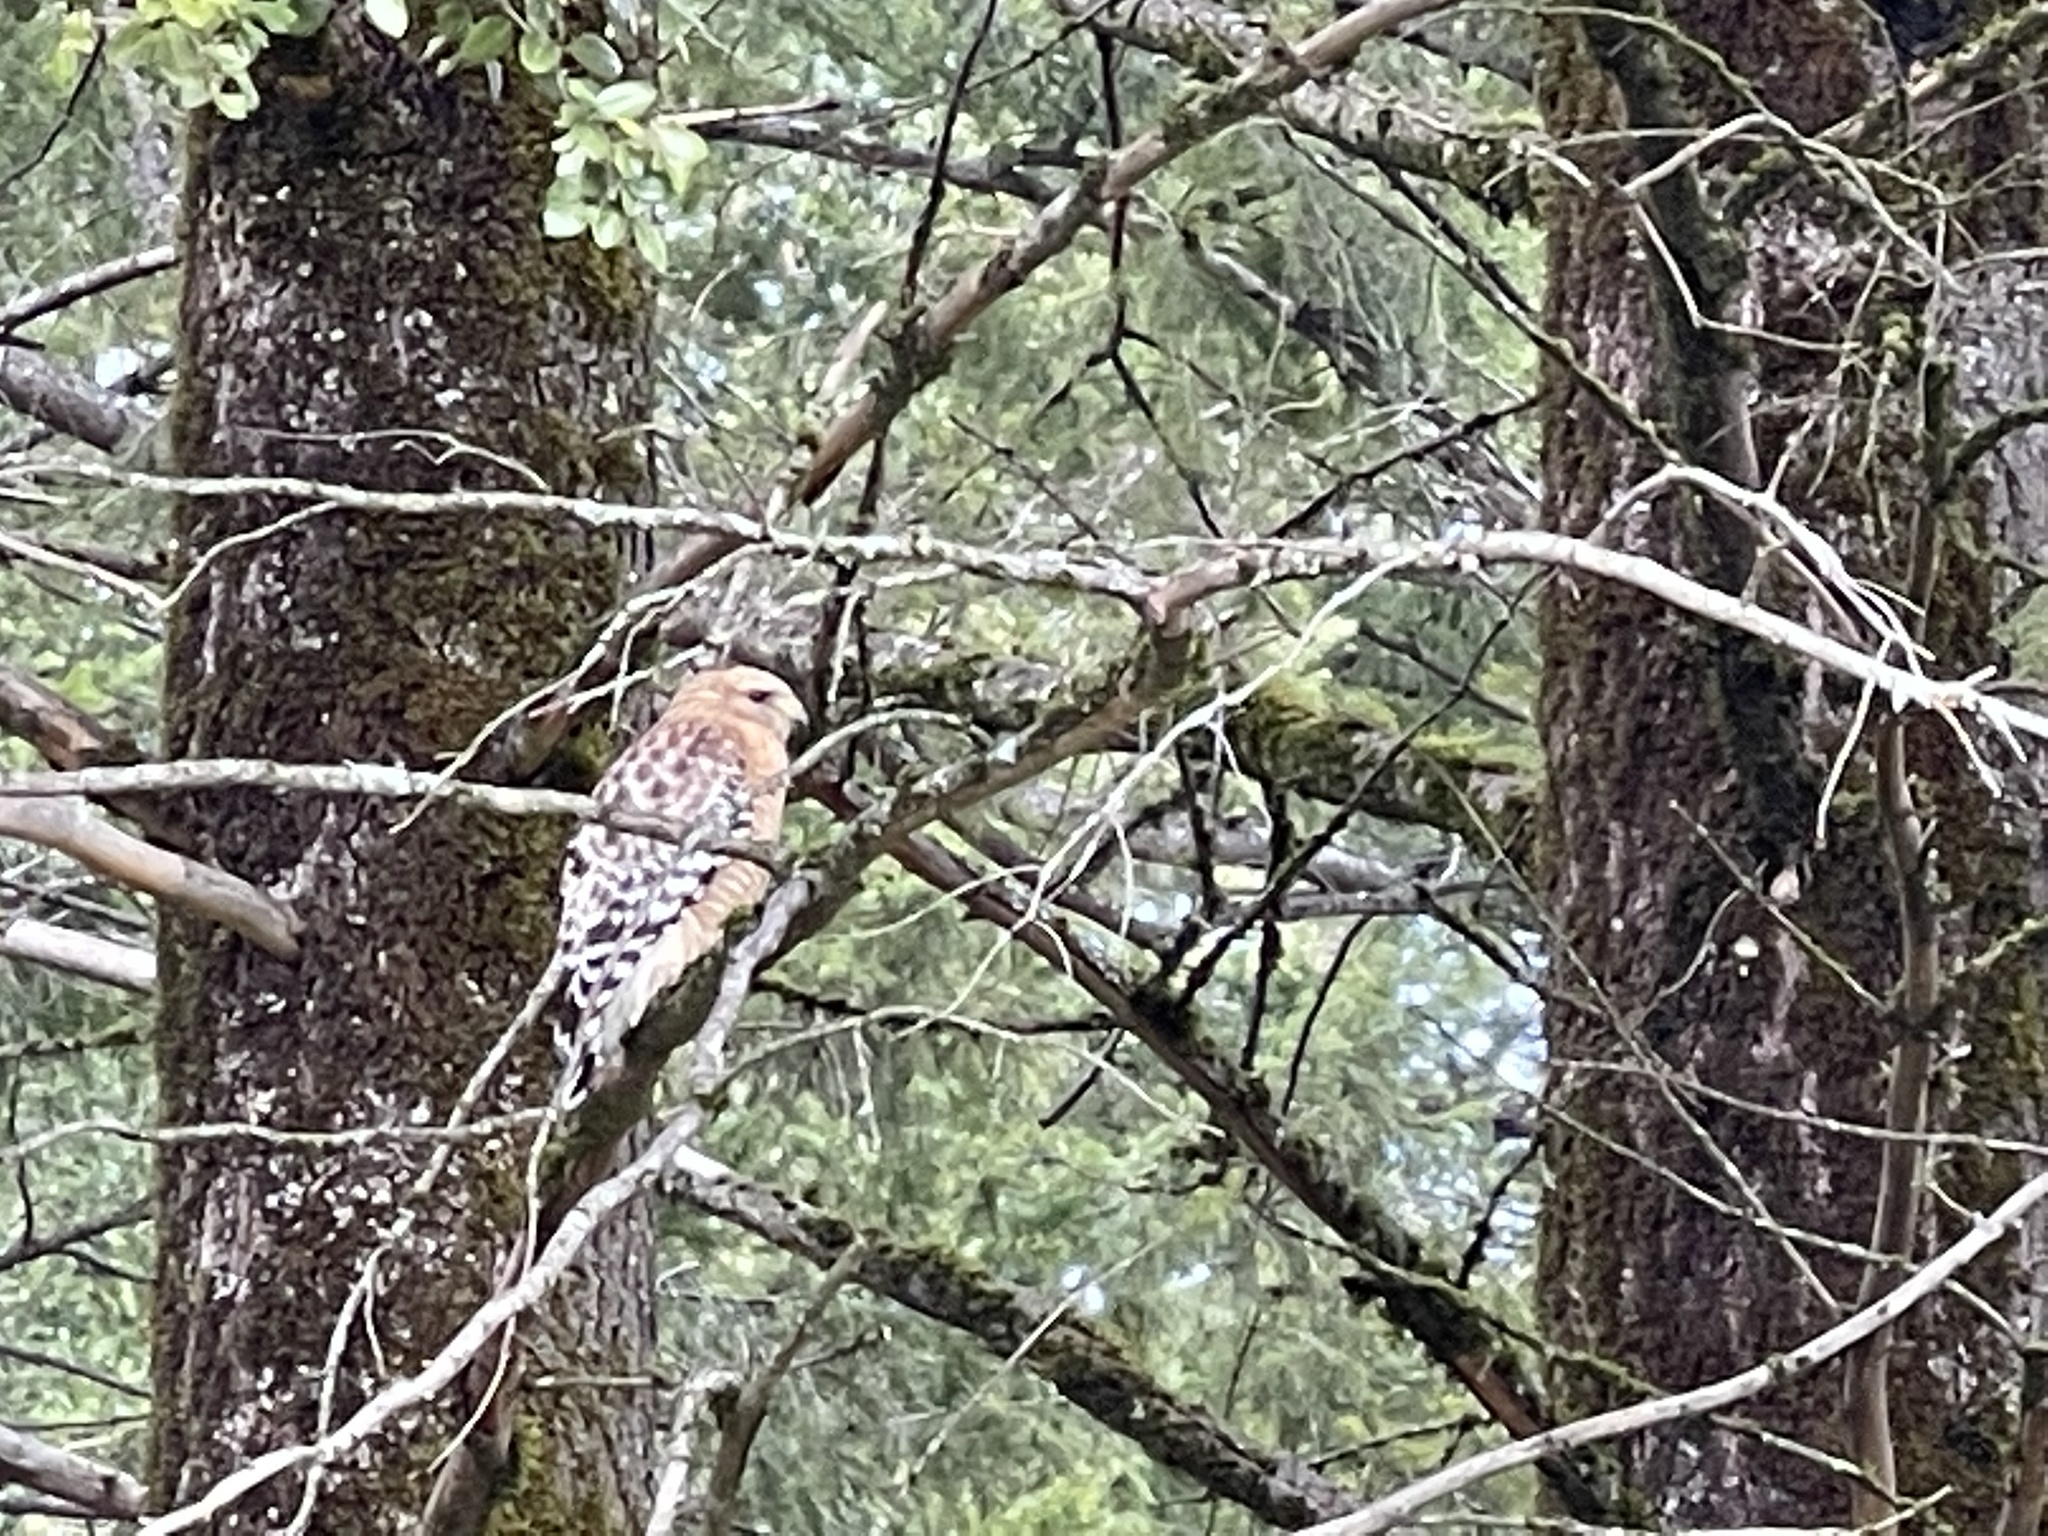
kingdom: Animalia
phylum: Chordata
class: Aves
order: Accipitriformes
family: Accipitridae
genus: Buteo
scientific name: Buteo lineatus
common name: Red-shouldered hawk
